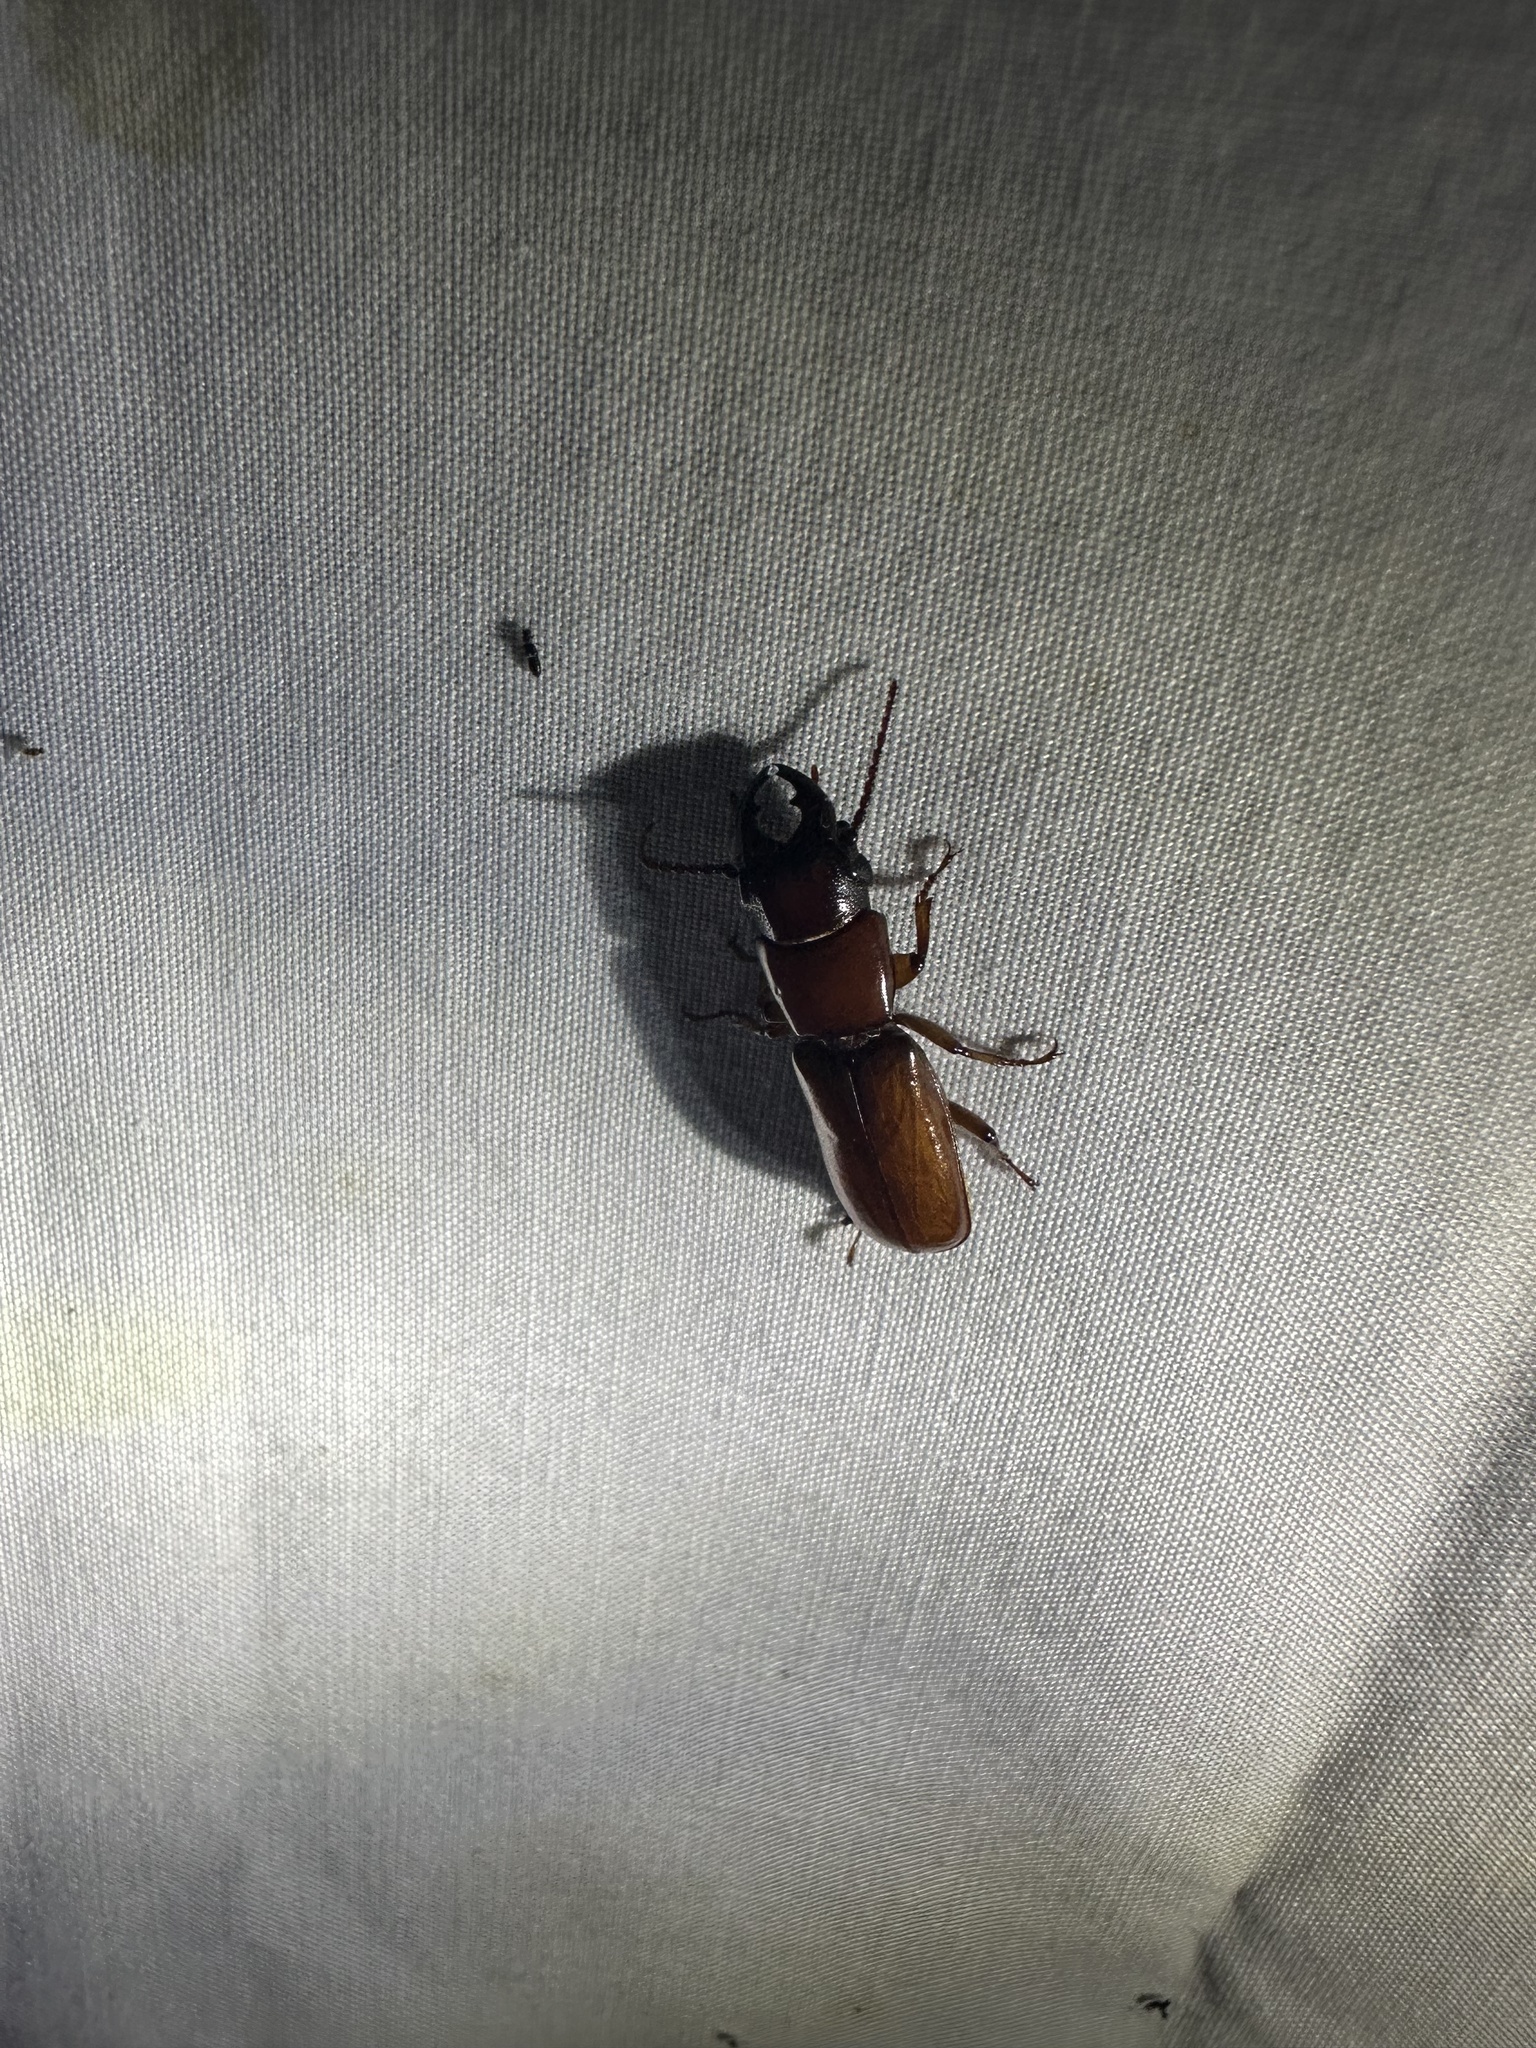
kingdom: Animalia
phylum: Arthropoda
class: Insecta
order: Coleoptera
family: Cerambycidae
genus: Parandra
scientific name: Parandra polita
